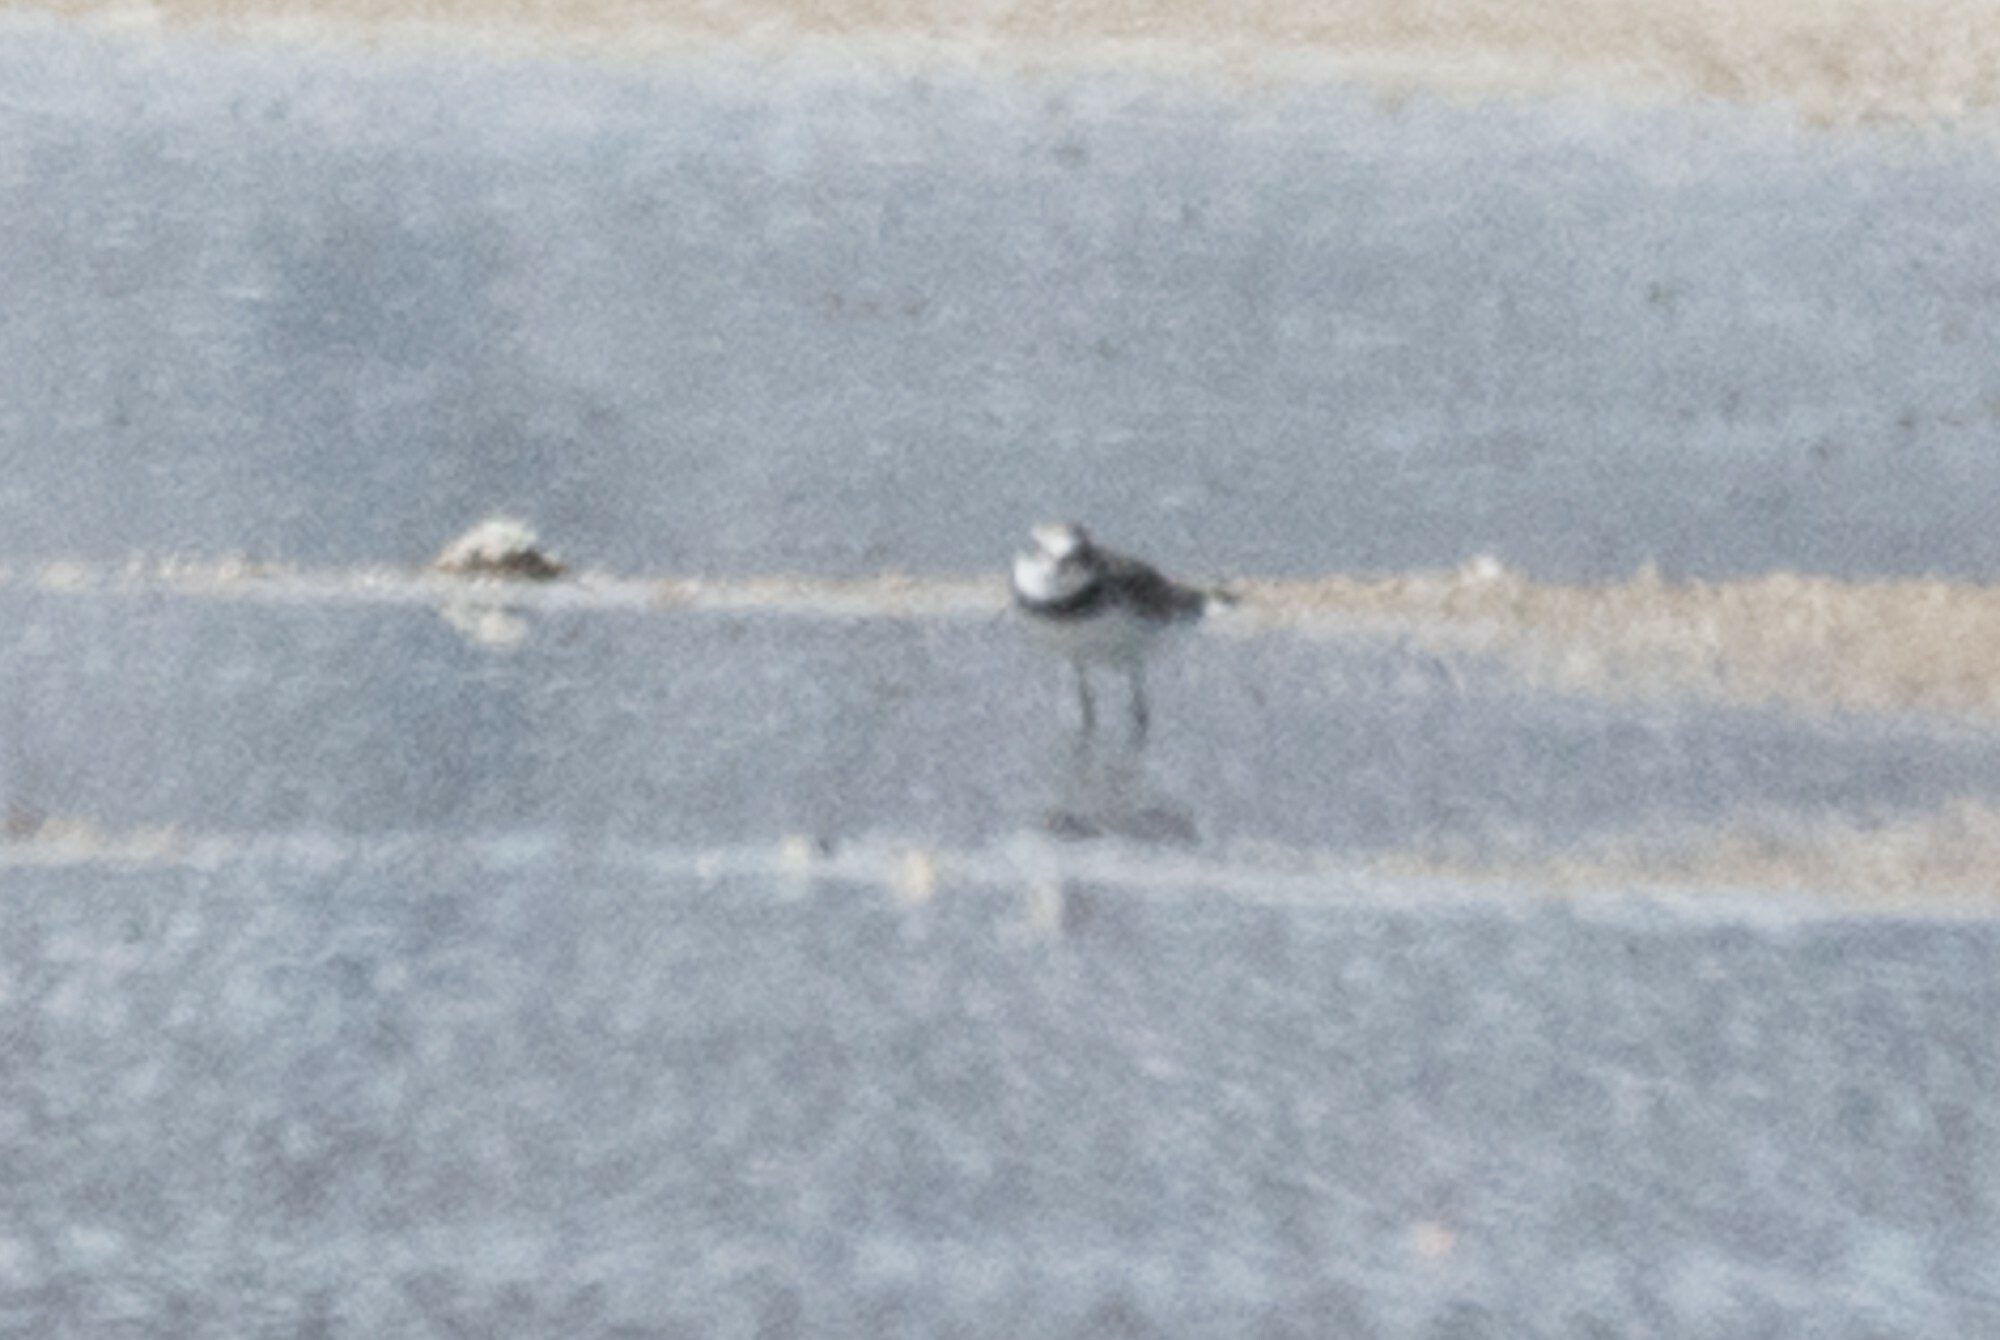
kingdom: Animalia
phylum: Chordata
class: Aves
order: Charadriiformes
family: Charadriidae
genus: Charadrius
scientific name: Charadrius semipalmatus
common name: Semipalmated plover
